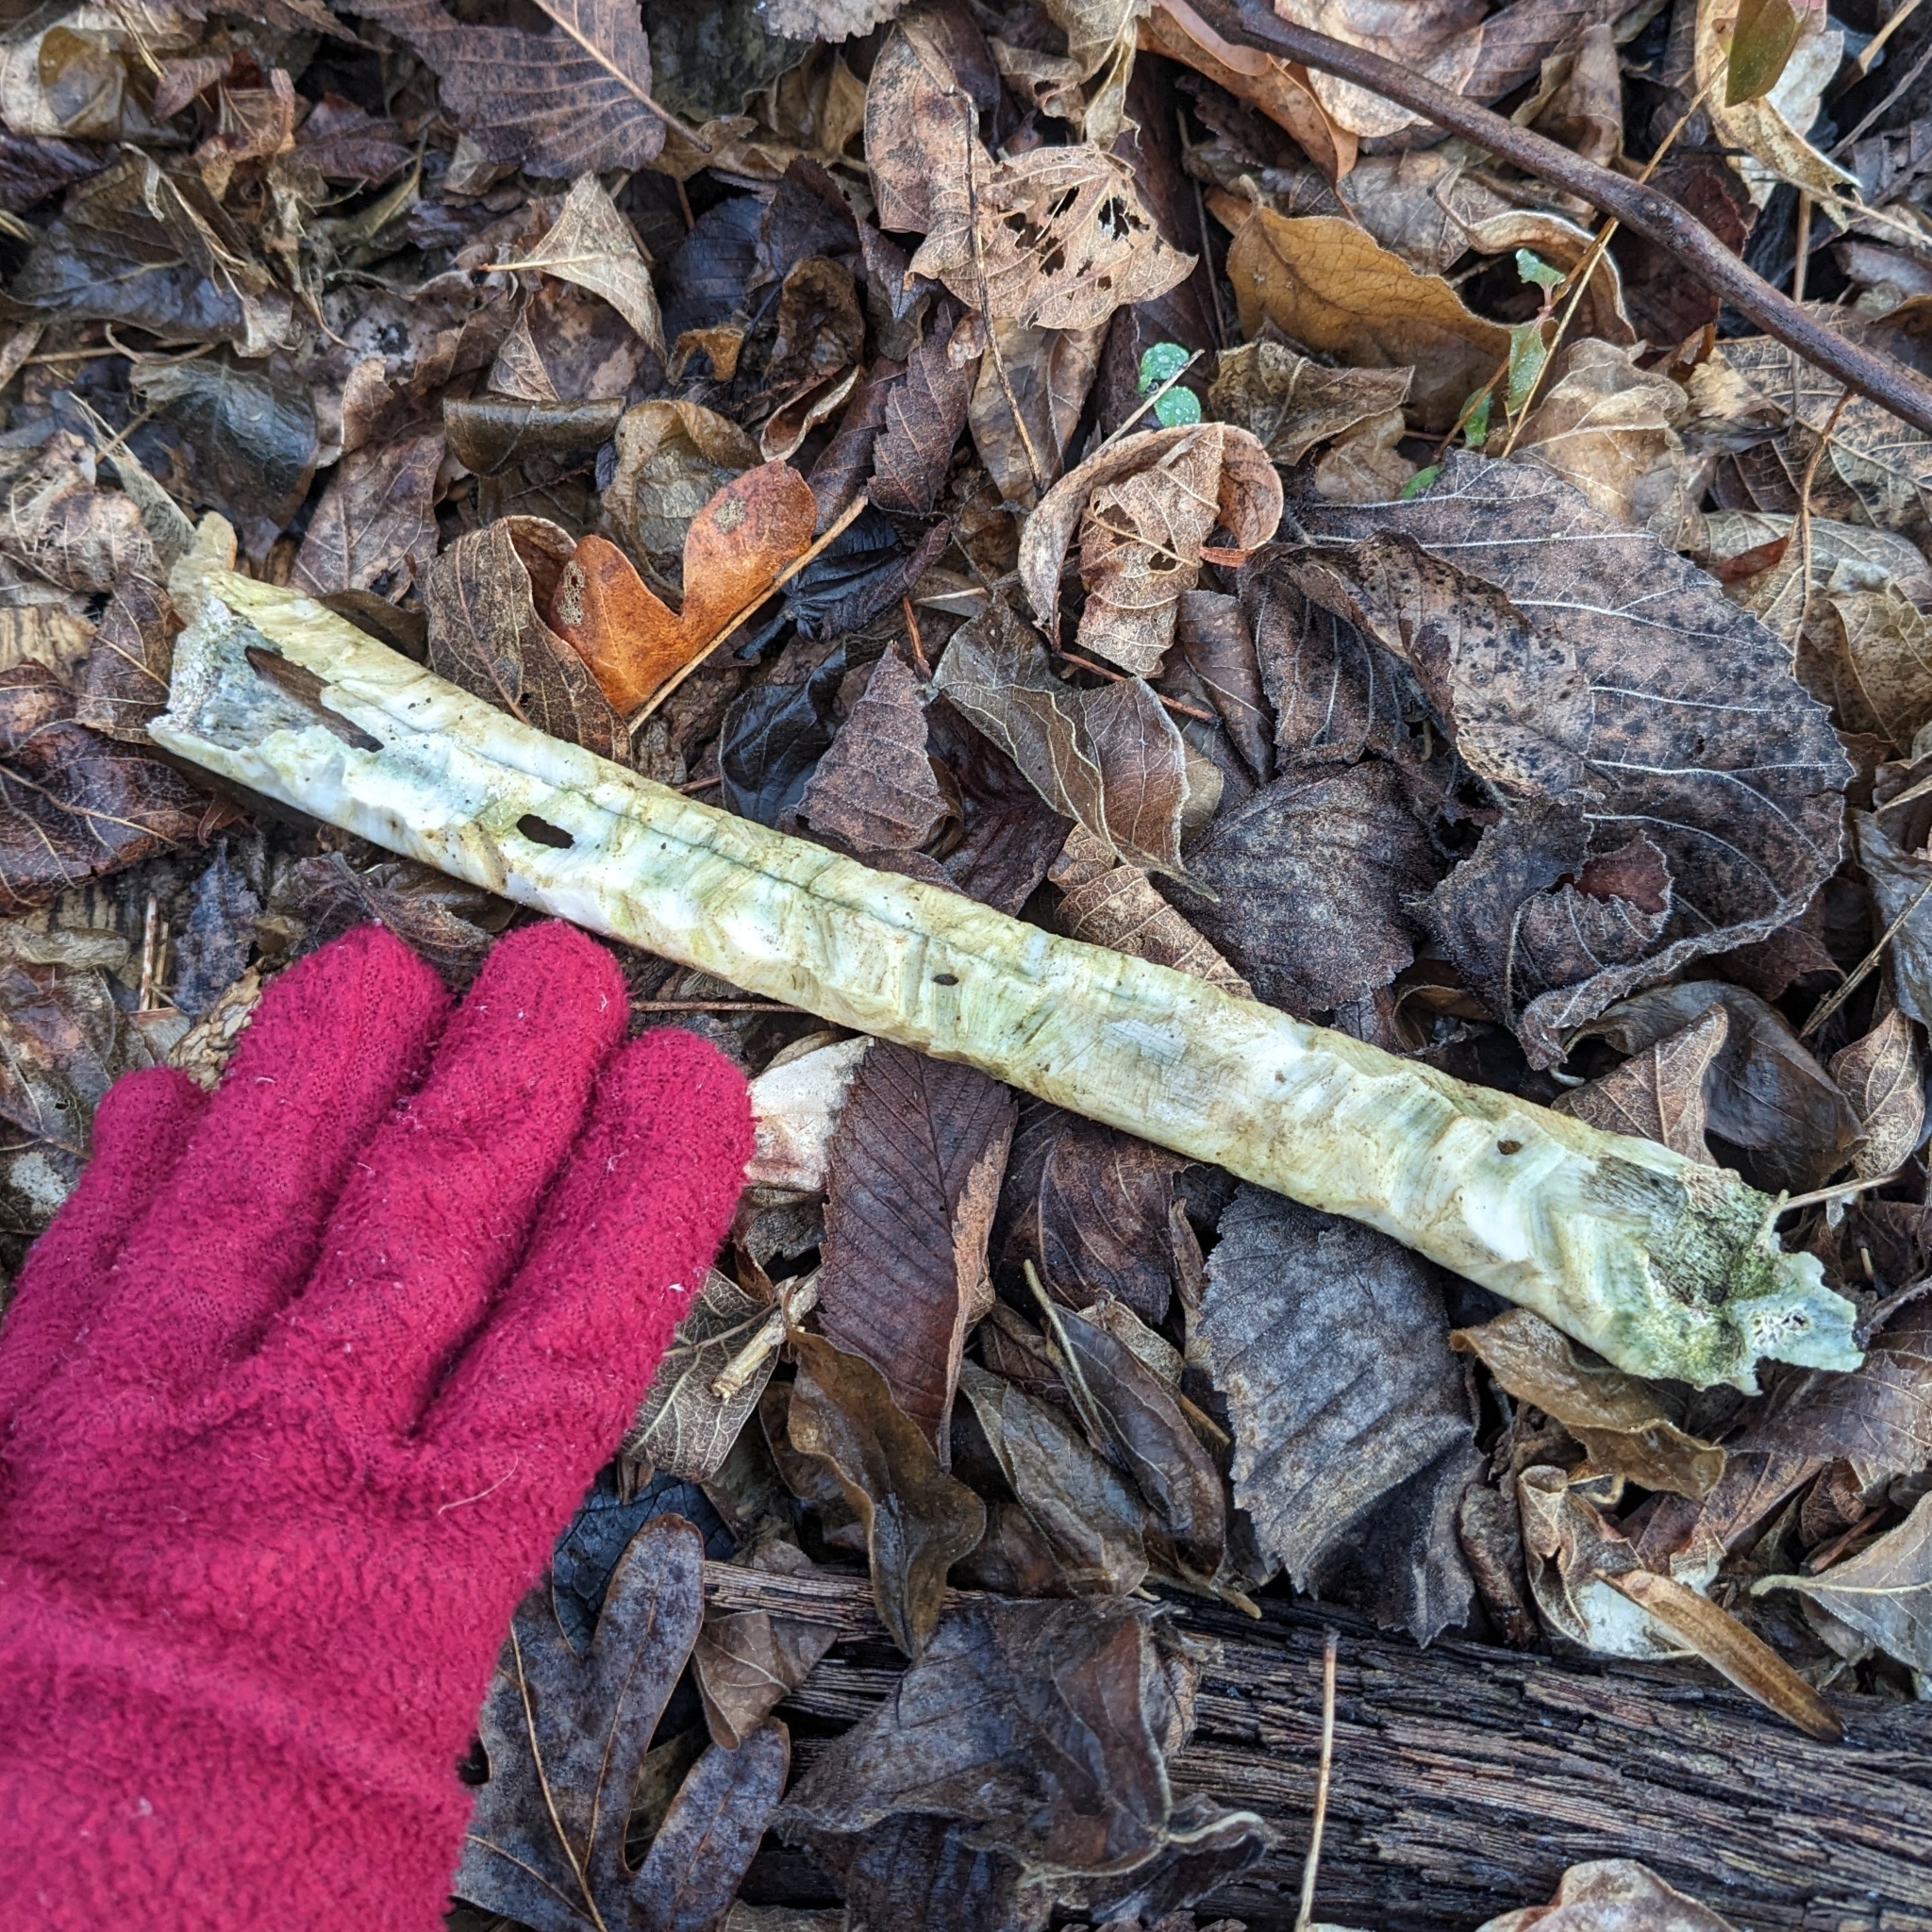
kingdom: Animalia
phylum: Chordata
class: Mammalia
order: Artiodactyla
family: Cervidae
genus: Odocoileus
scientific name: Odocoileus virginianus
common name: White-tailed deer
